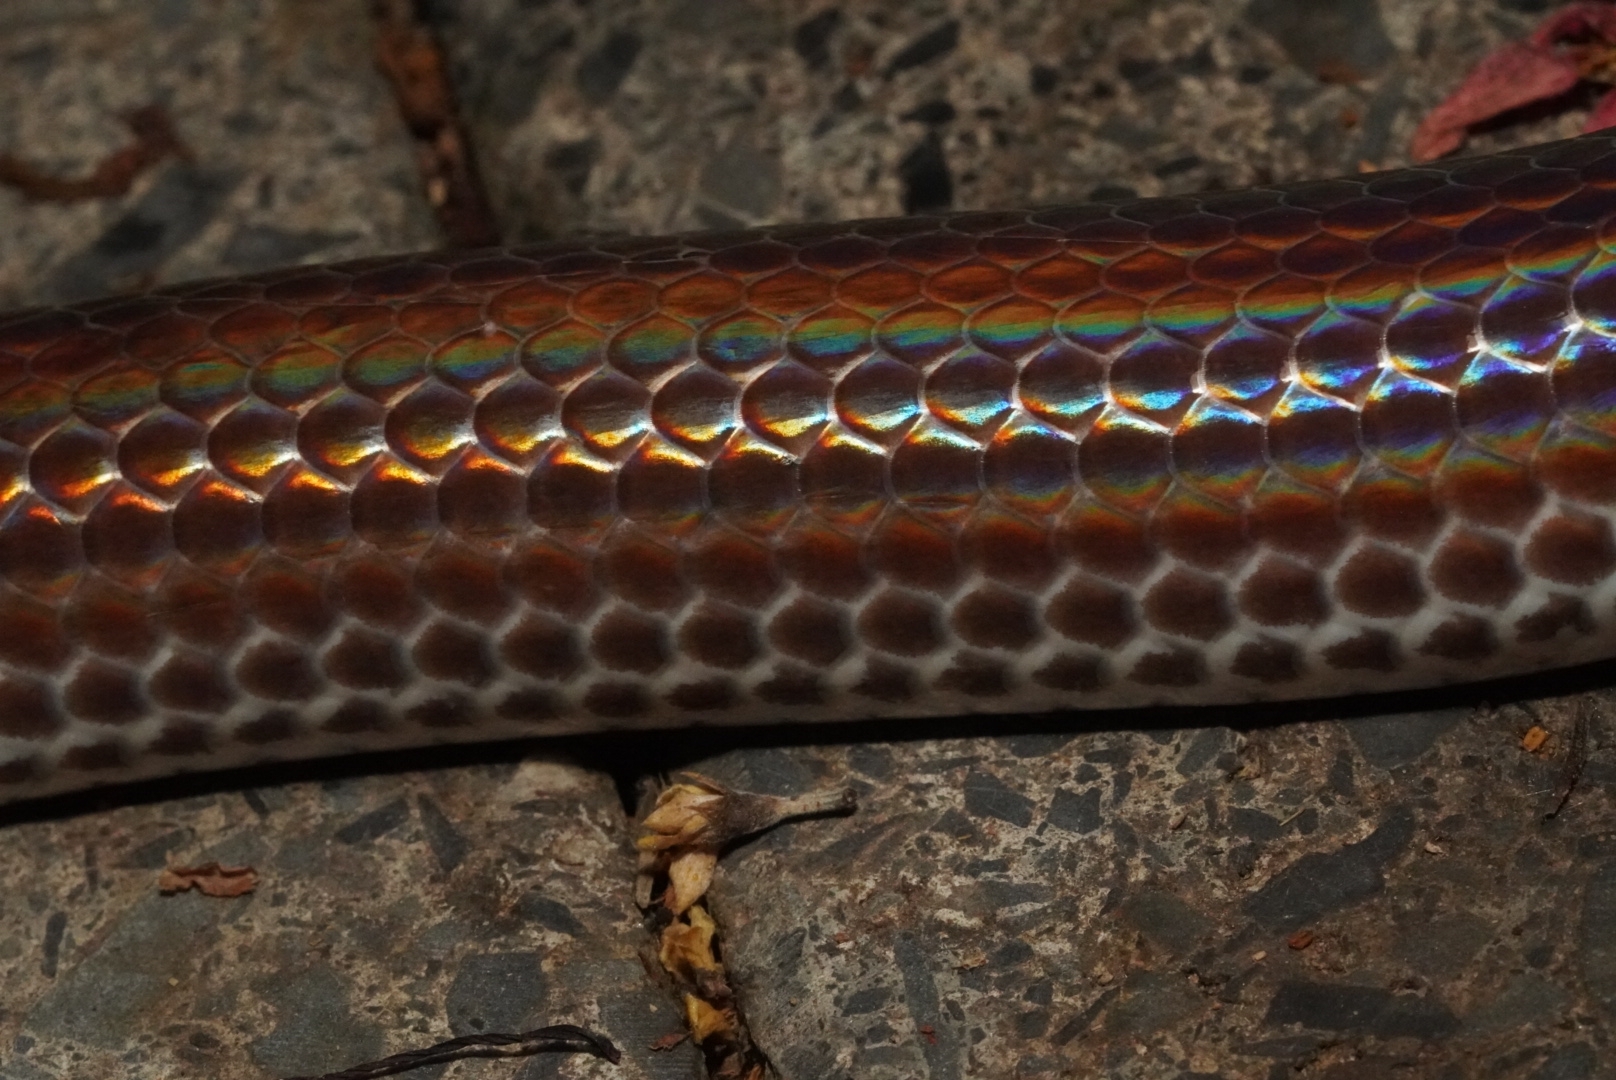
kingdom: Animalia
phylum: Chordata
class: Squamata
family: Xenopeltidae
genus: Xenopeltis
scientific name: Xenopeltis unicolor
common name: Sunbeam snake
